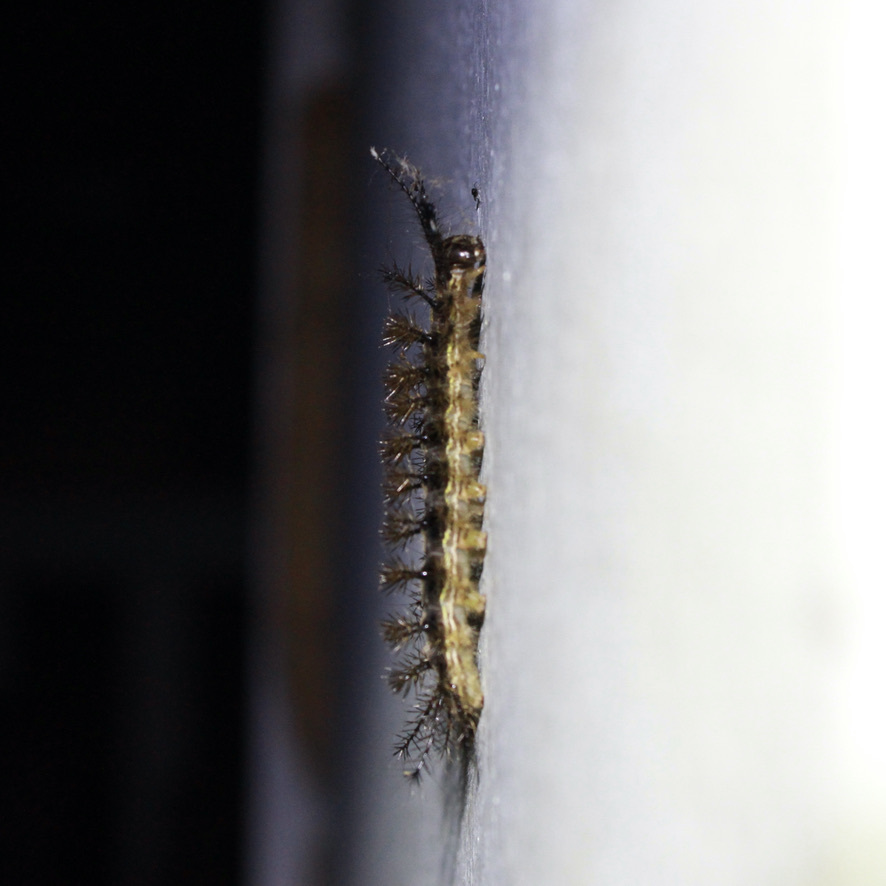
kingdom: Animalia
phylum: Arthropoda
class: Insecta
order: Lepidoptera
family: Saturniidae
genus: Hylesia
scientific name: Hylesia metabus
